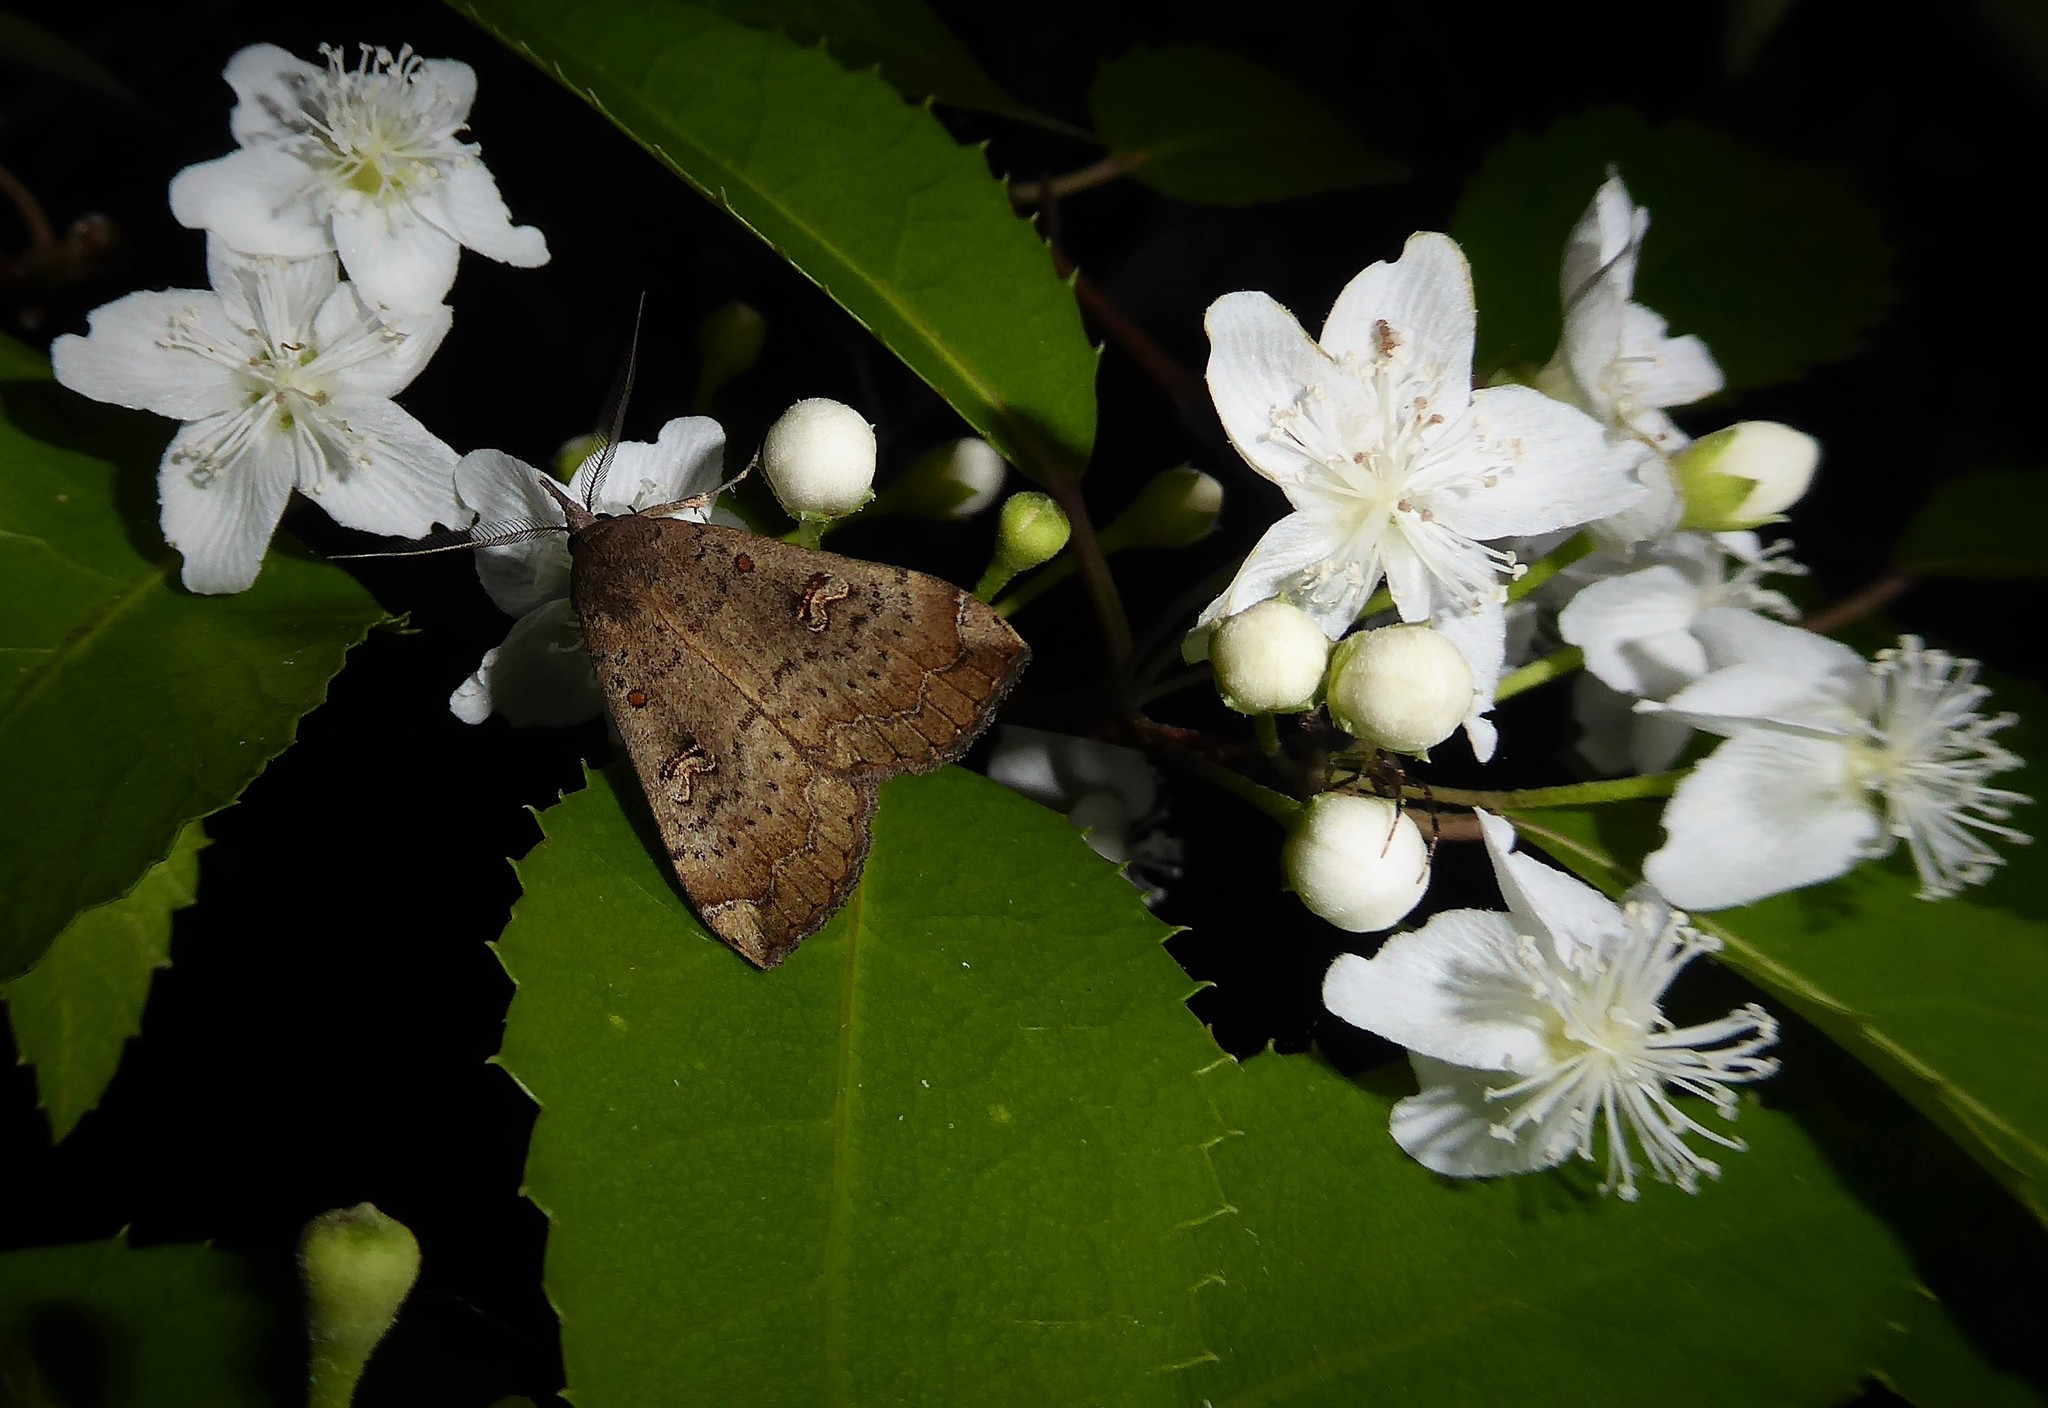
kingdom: Animalia
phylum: Arthropoda
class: Insecta
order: Lepidoptera
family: Erebidae
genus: Rhapsa
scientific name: Rhapsa scotosialis
